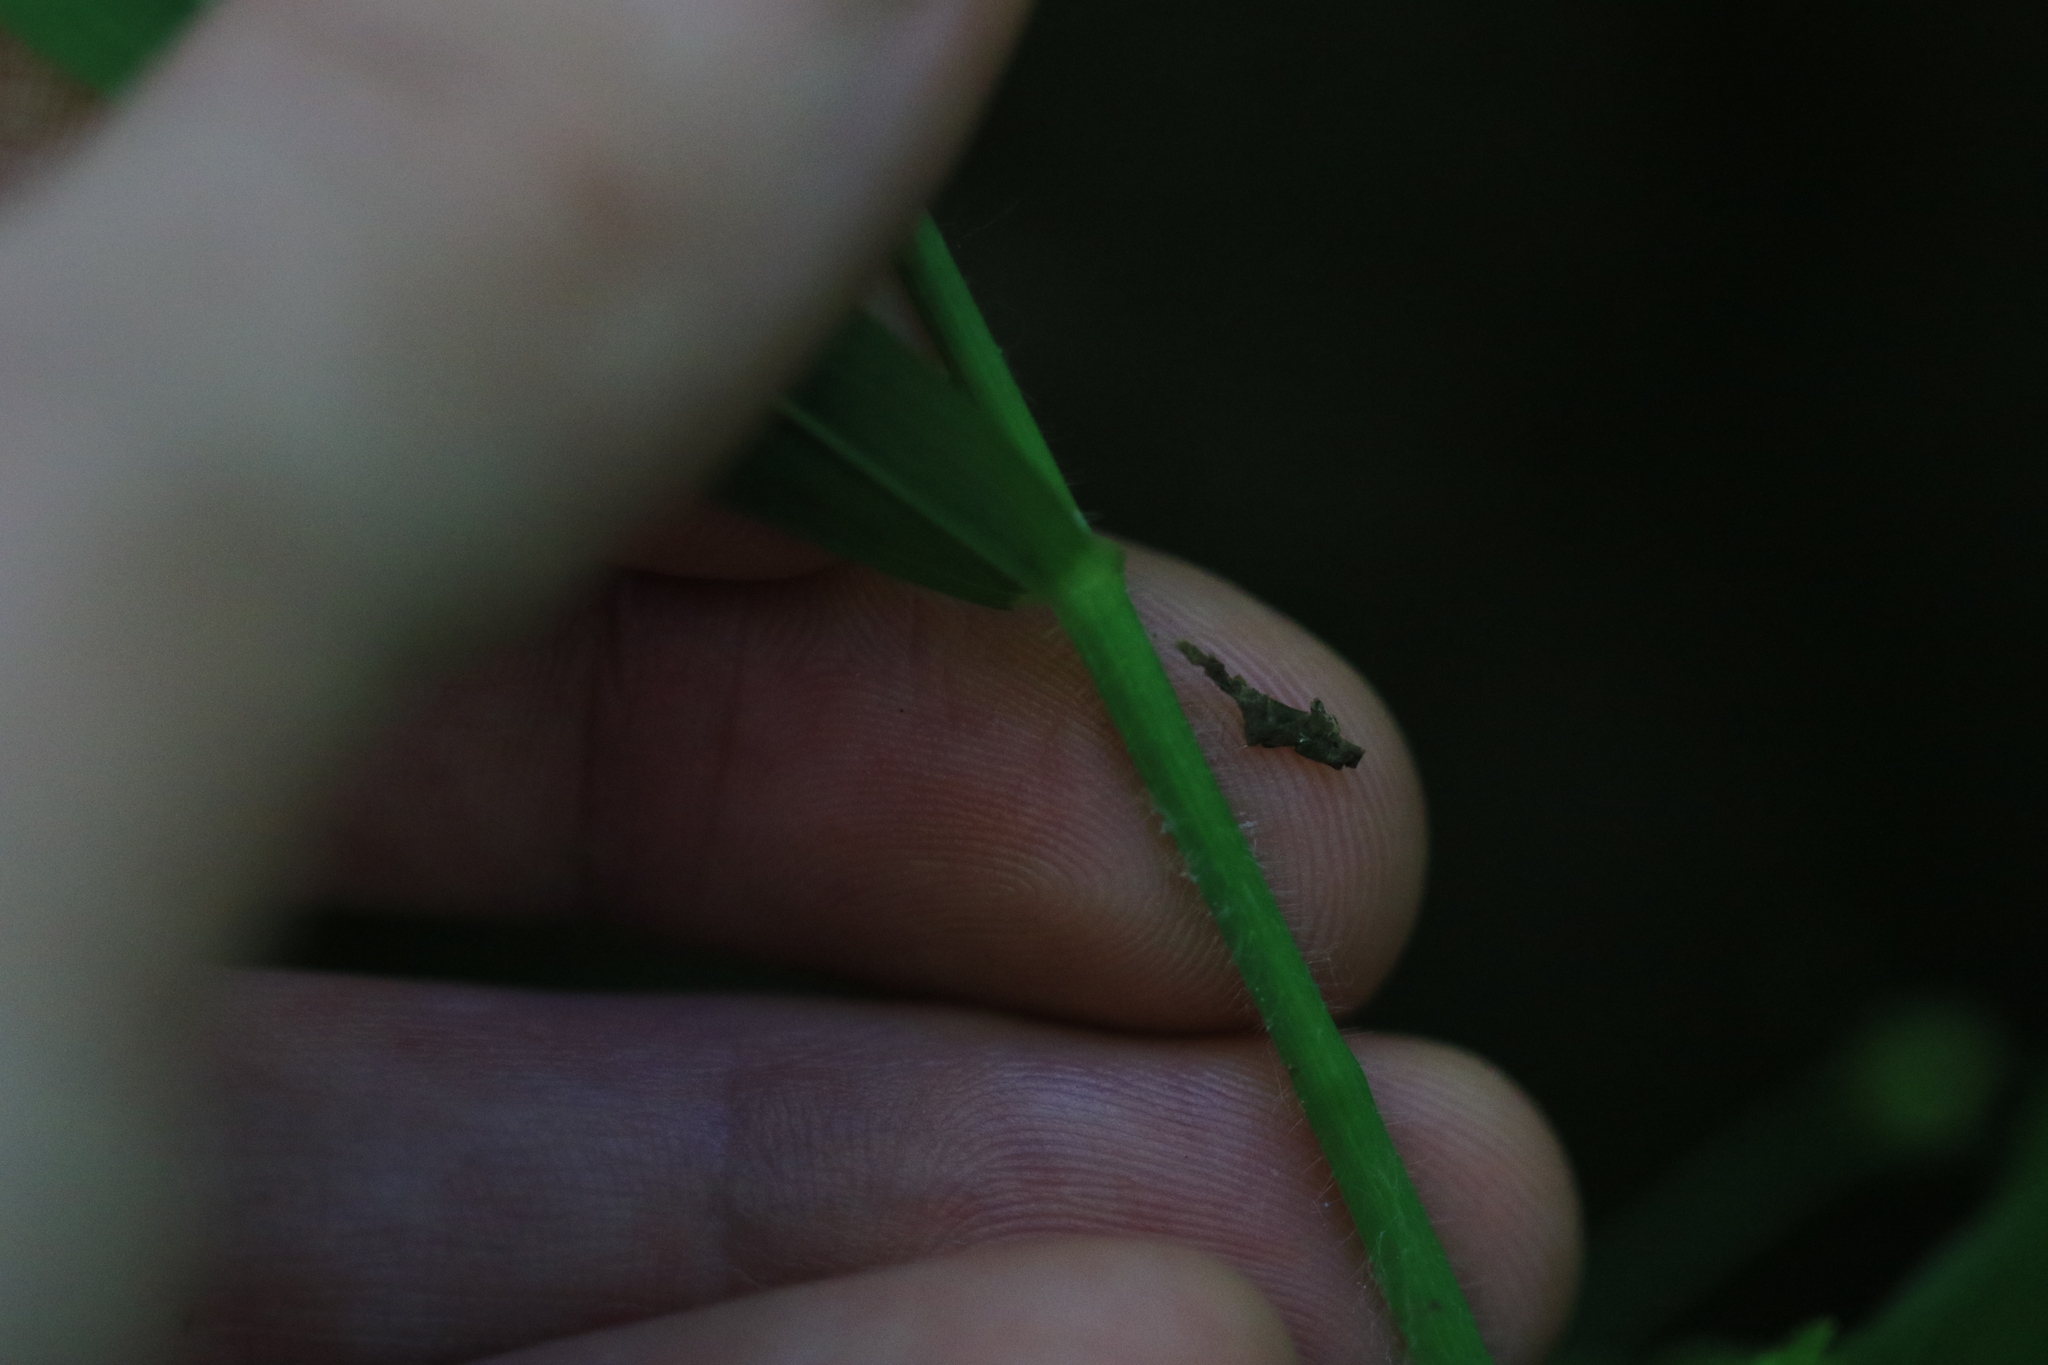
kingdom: Plantae
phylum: Tracheophyta
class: Liliopsida
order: Poales
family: Poaceae
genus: Brachypodium
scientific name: Brachypodium sylvaticum
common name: False-brome
